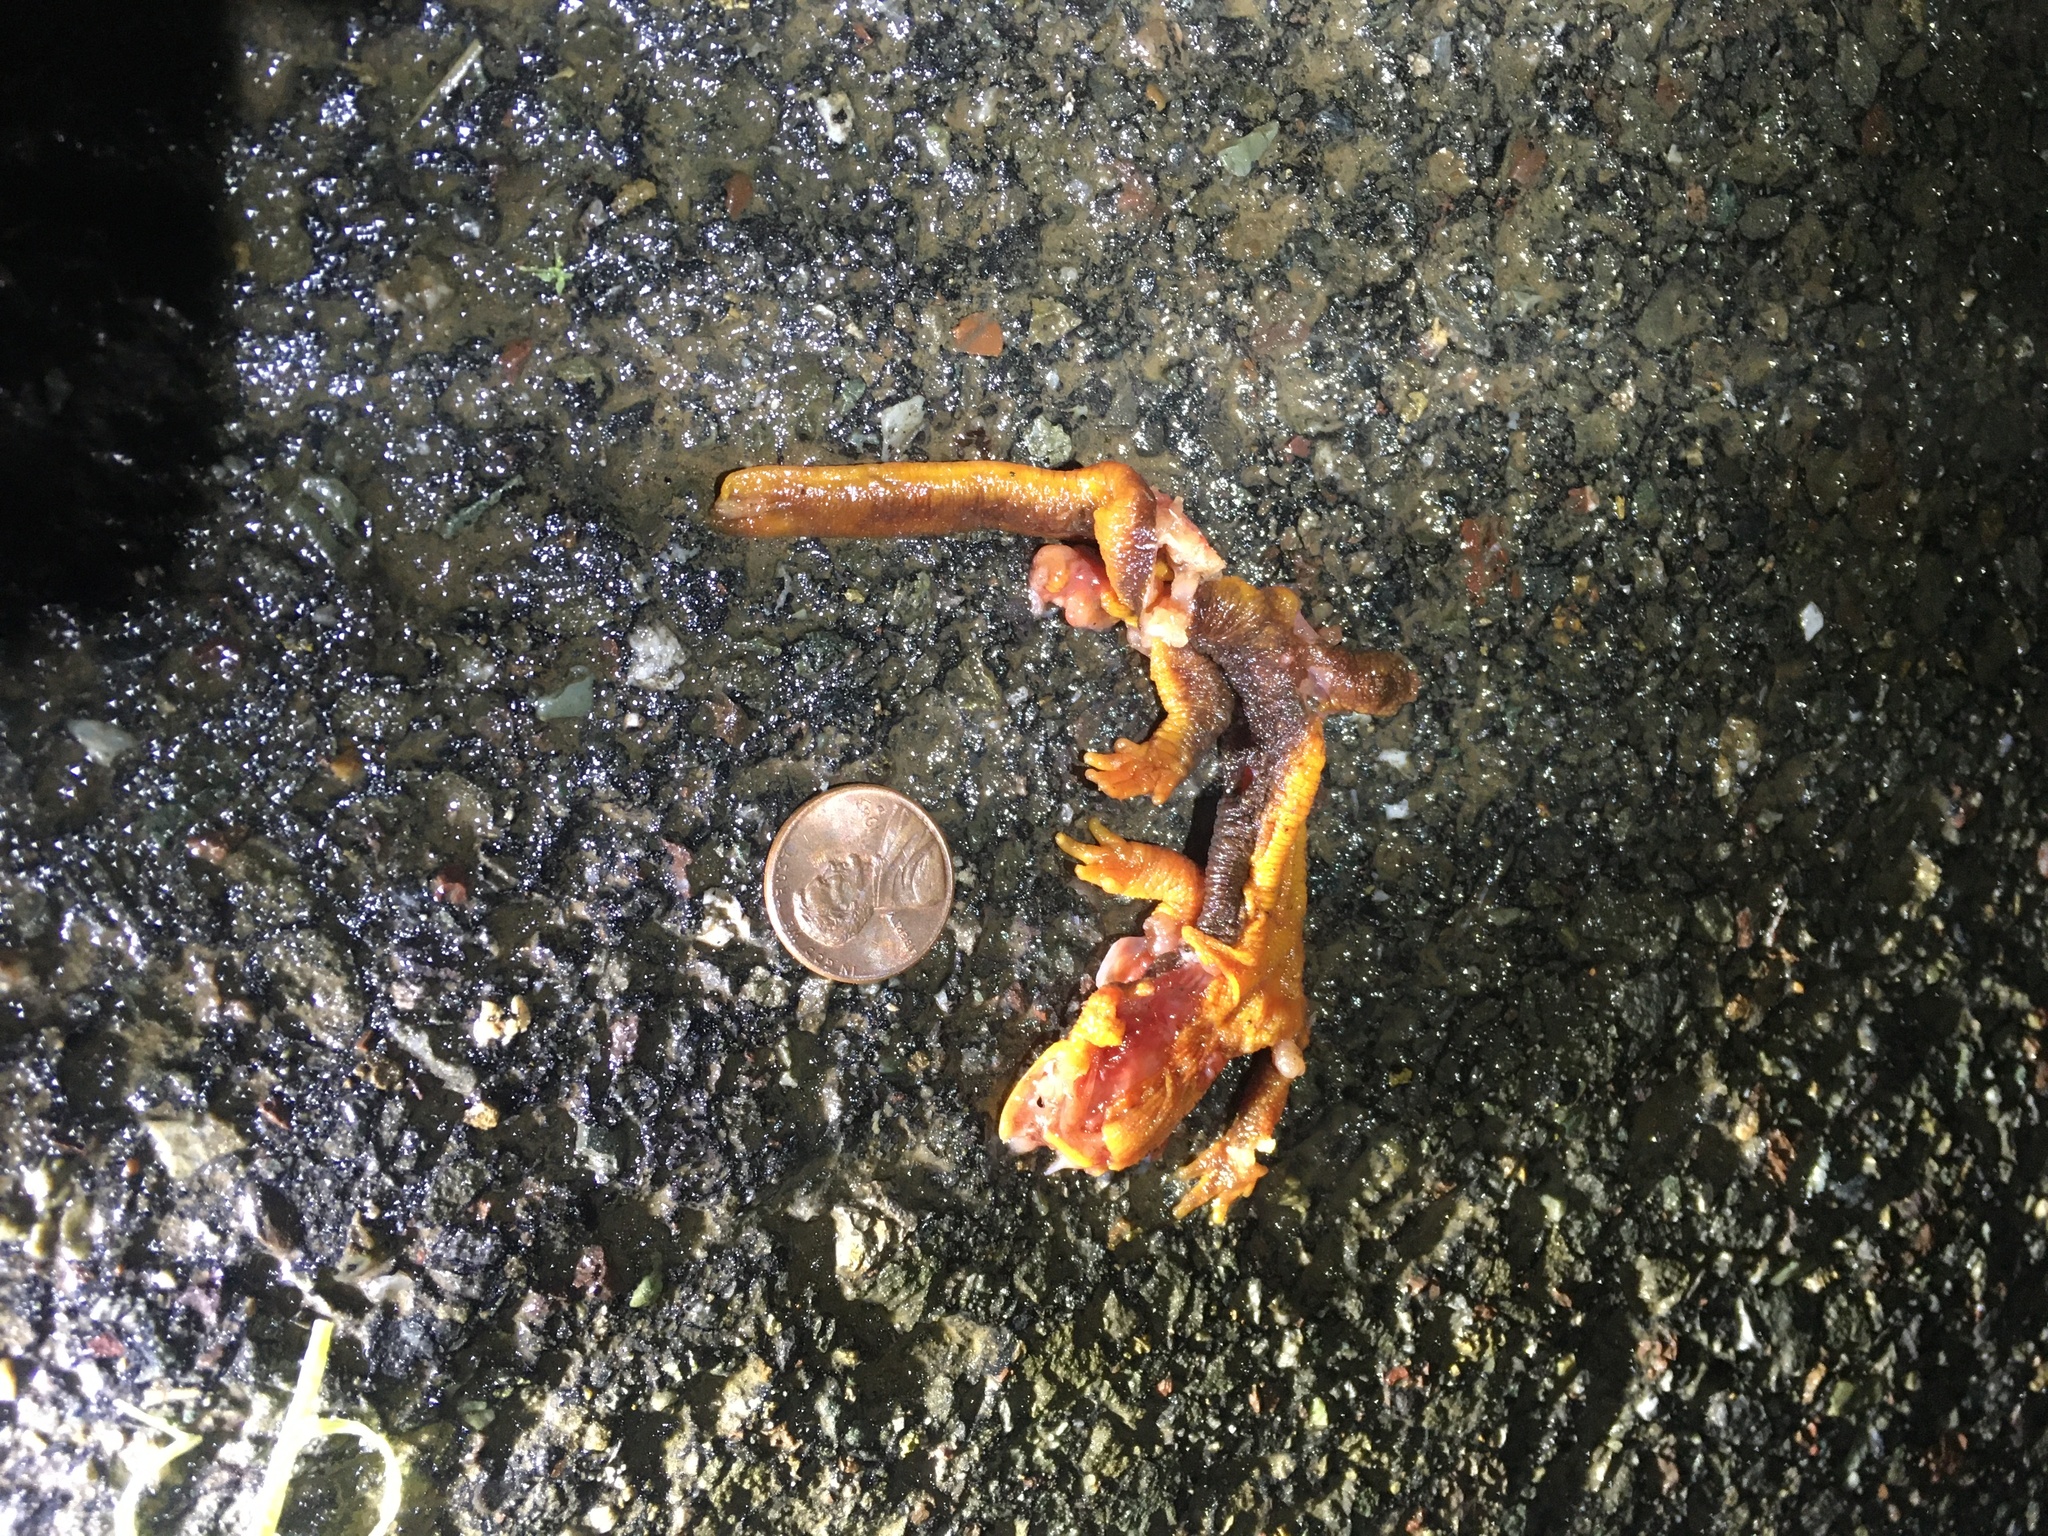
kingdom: Animalia
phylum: Chordata
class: Amphibia
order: Caudata
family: Salamandridae
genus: Taricha
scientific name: Taricha
